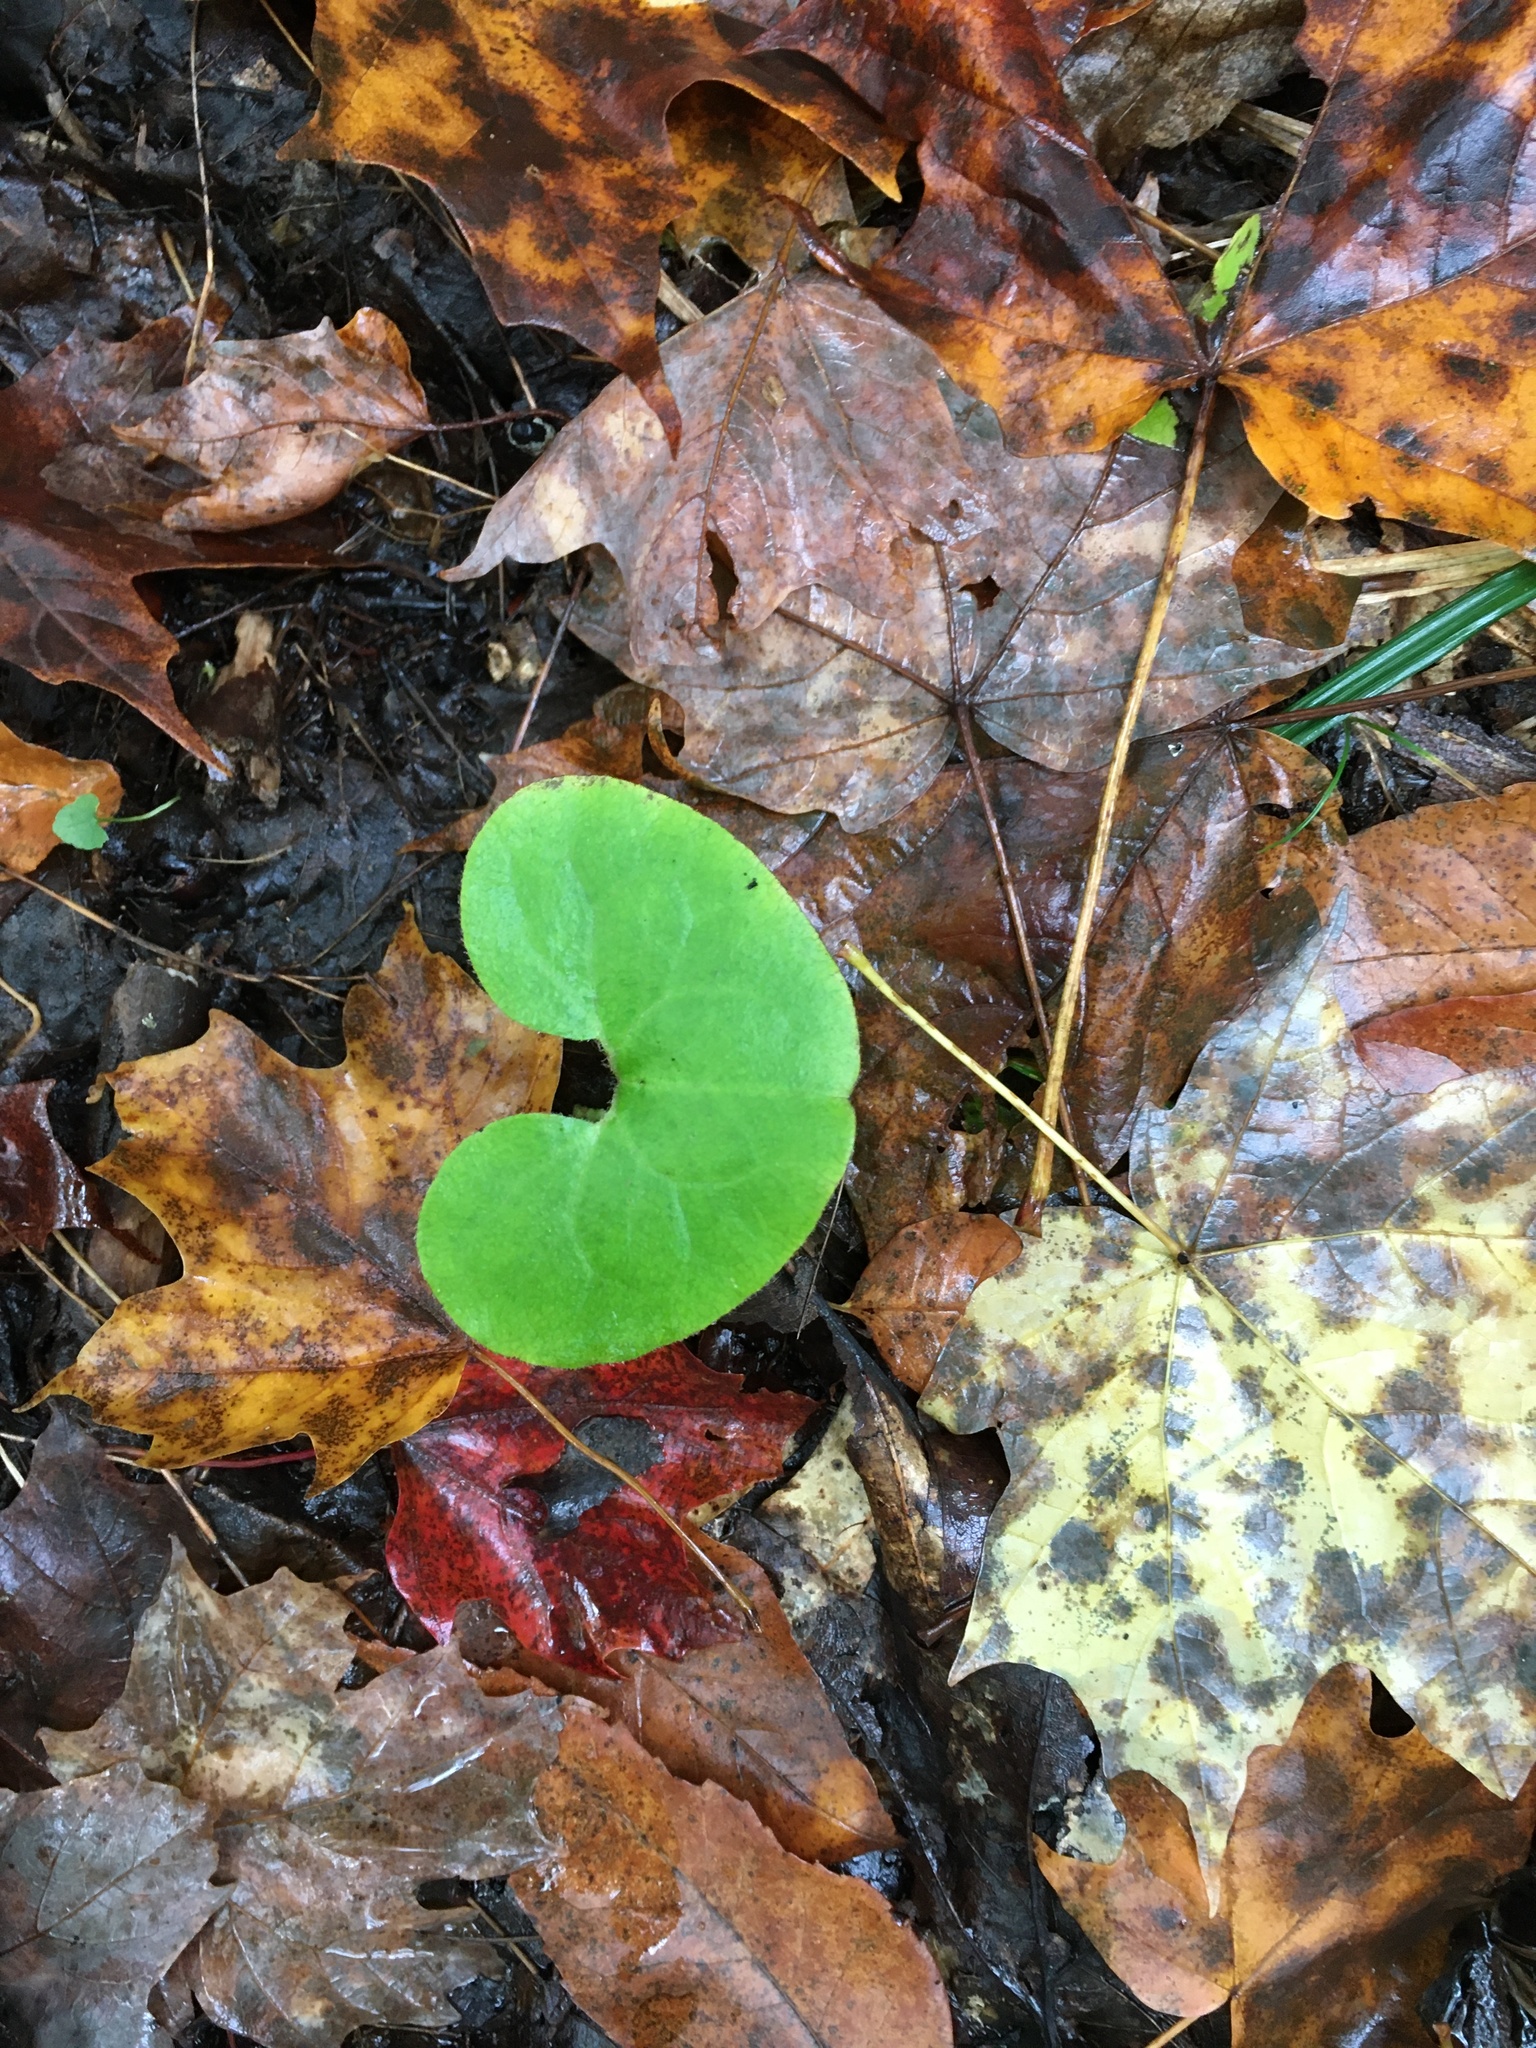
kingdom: Plantae
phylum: Tracheophyta
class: Magnoliopsida
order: Piperales
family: Aristolochiaceae
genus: Asarum
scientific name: Asarum canadense
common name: Wild ginger
